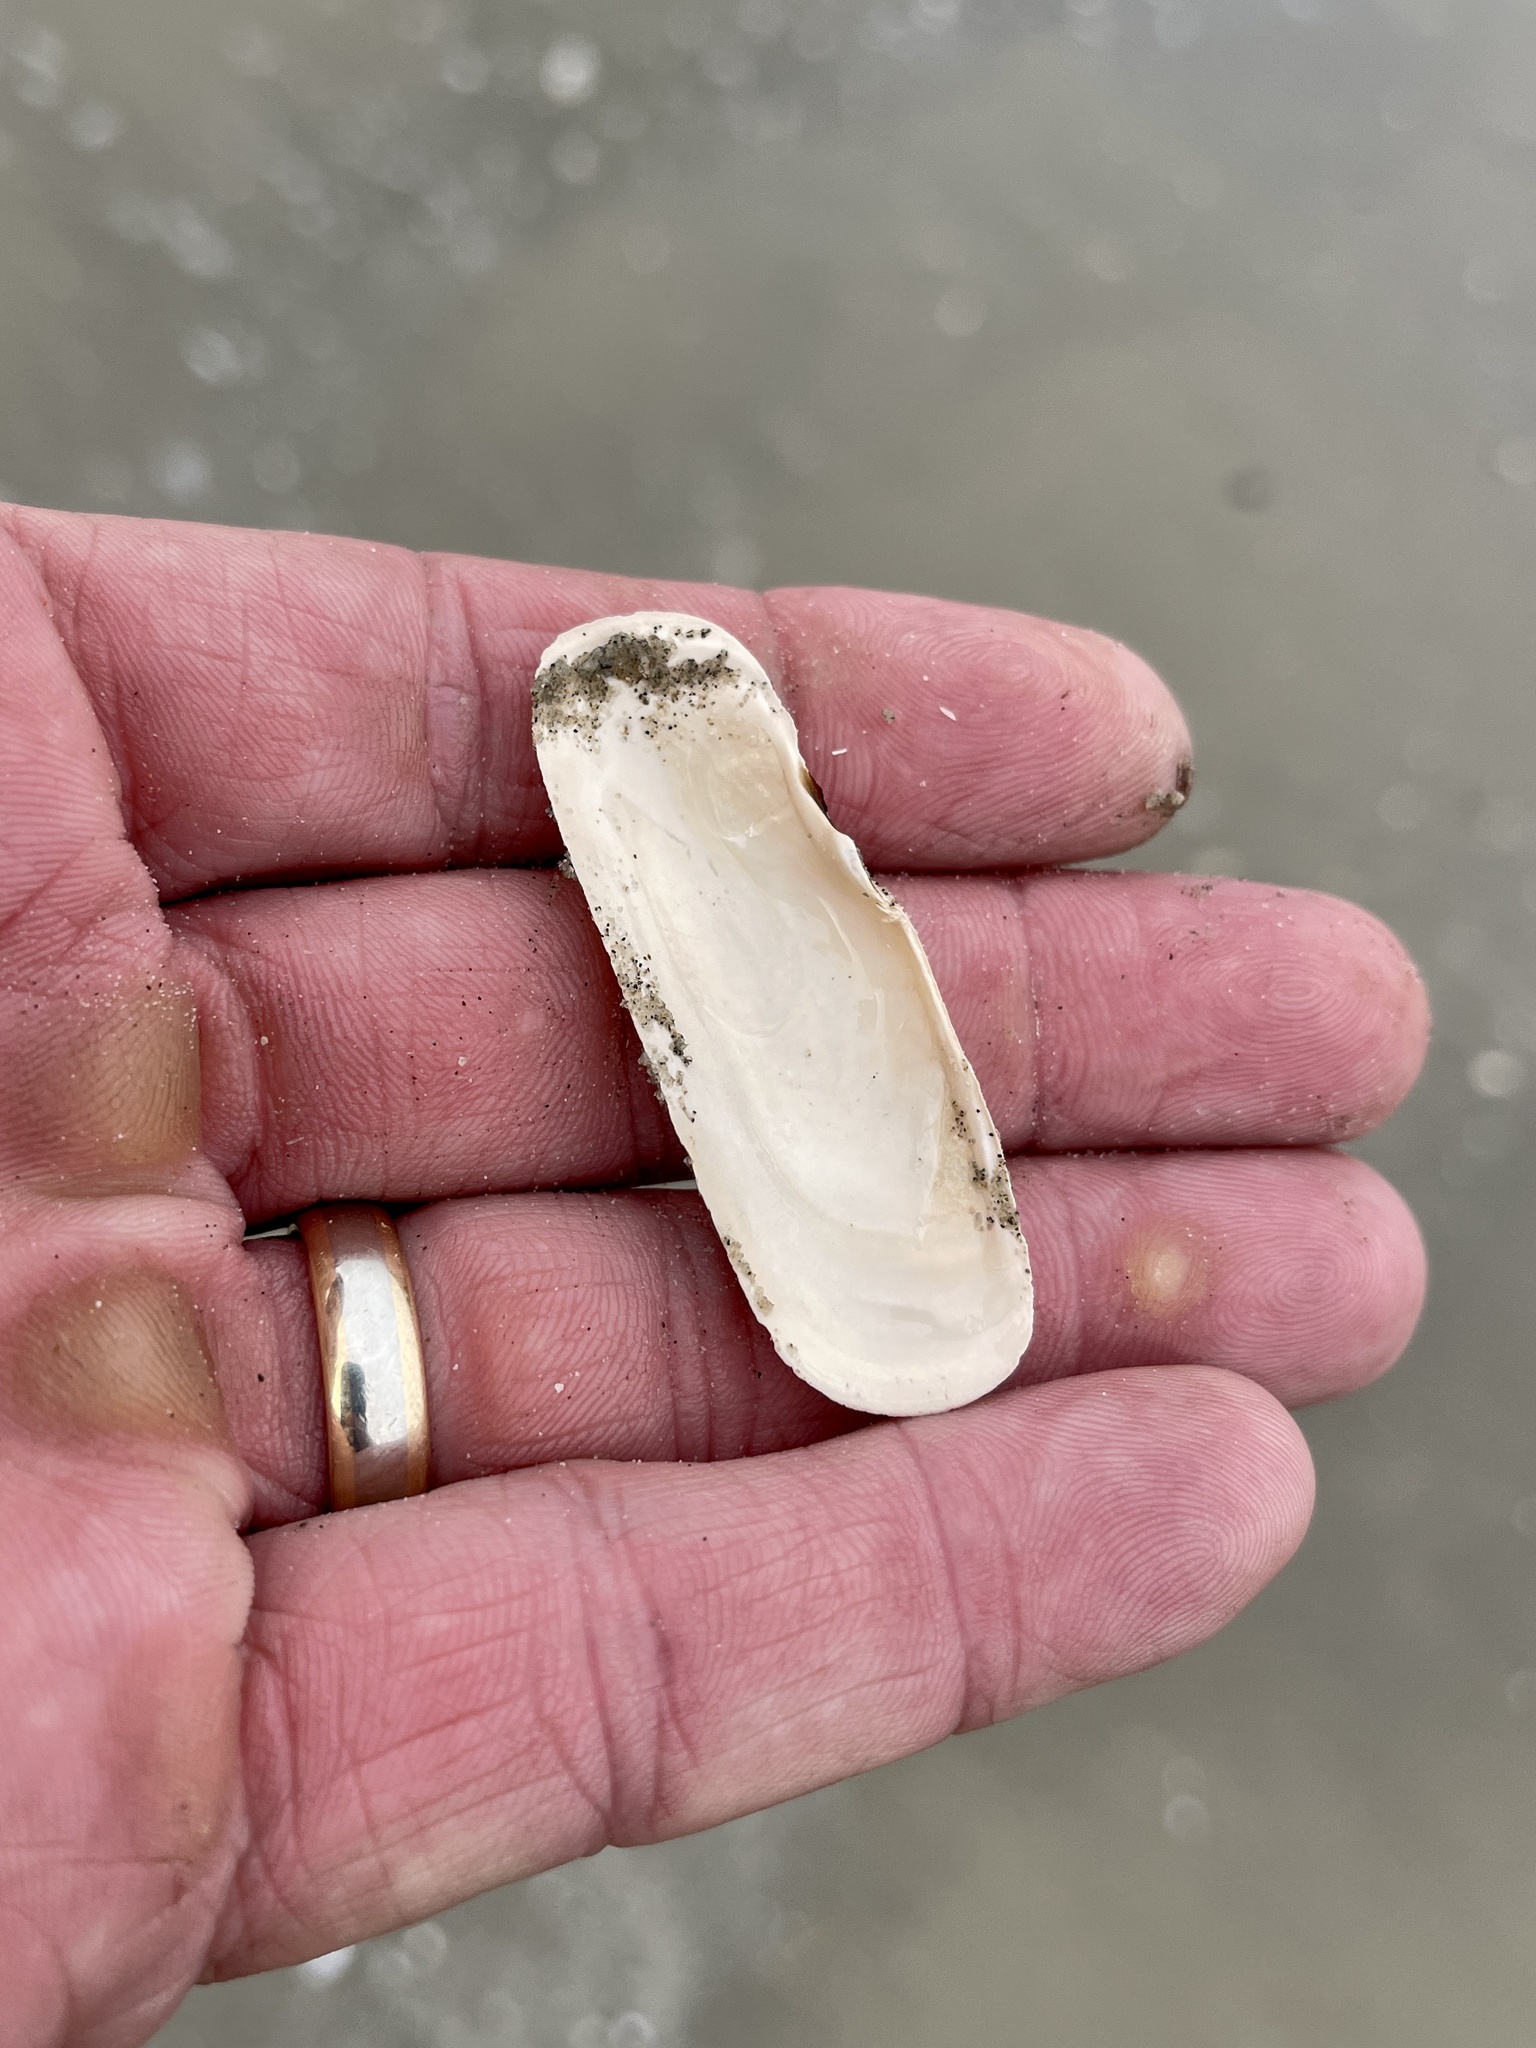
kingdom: Animalia
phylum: Mollusca
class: Bivalvia
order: Cardiida
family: Solecurtidae
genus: Tagelus
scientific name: Tagelus plebeius
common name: Stout tagelus
